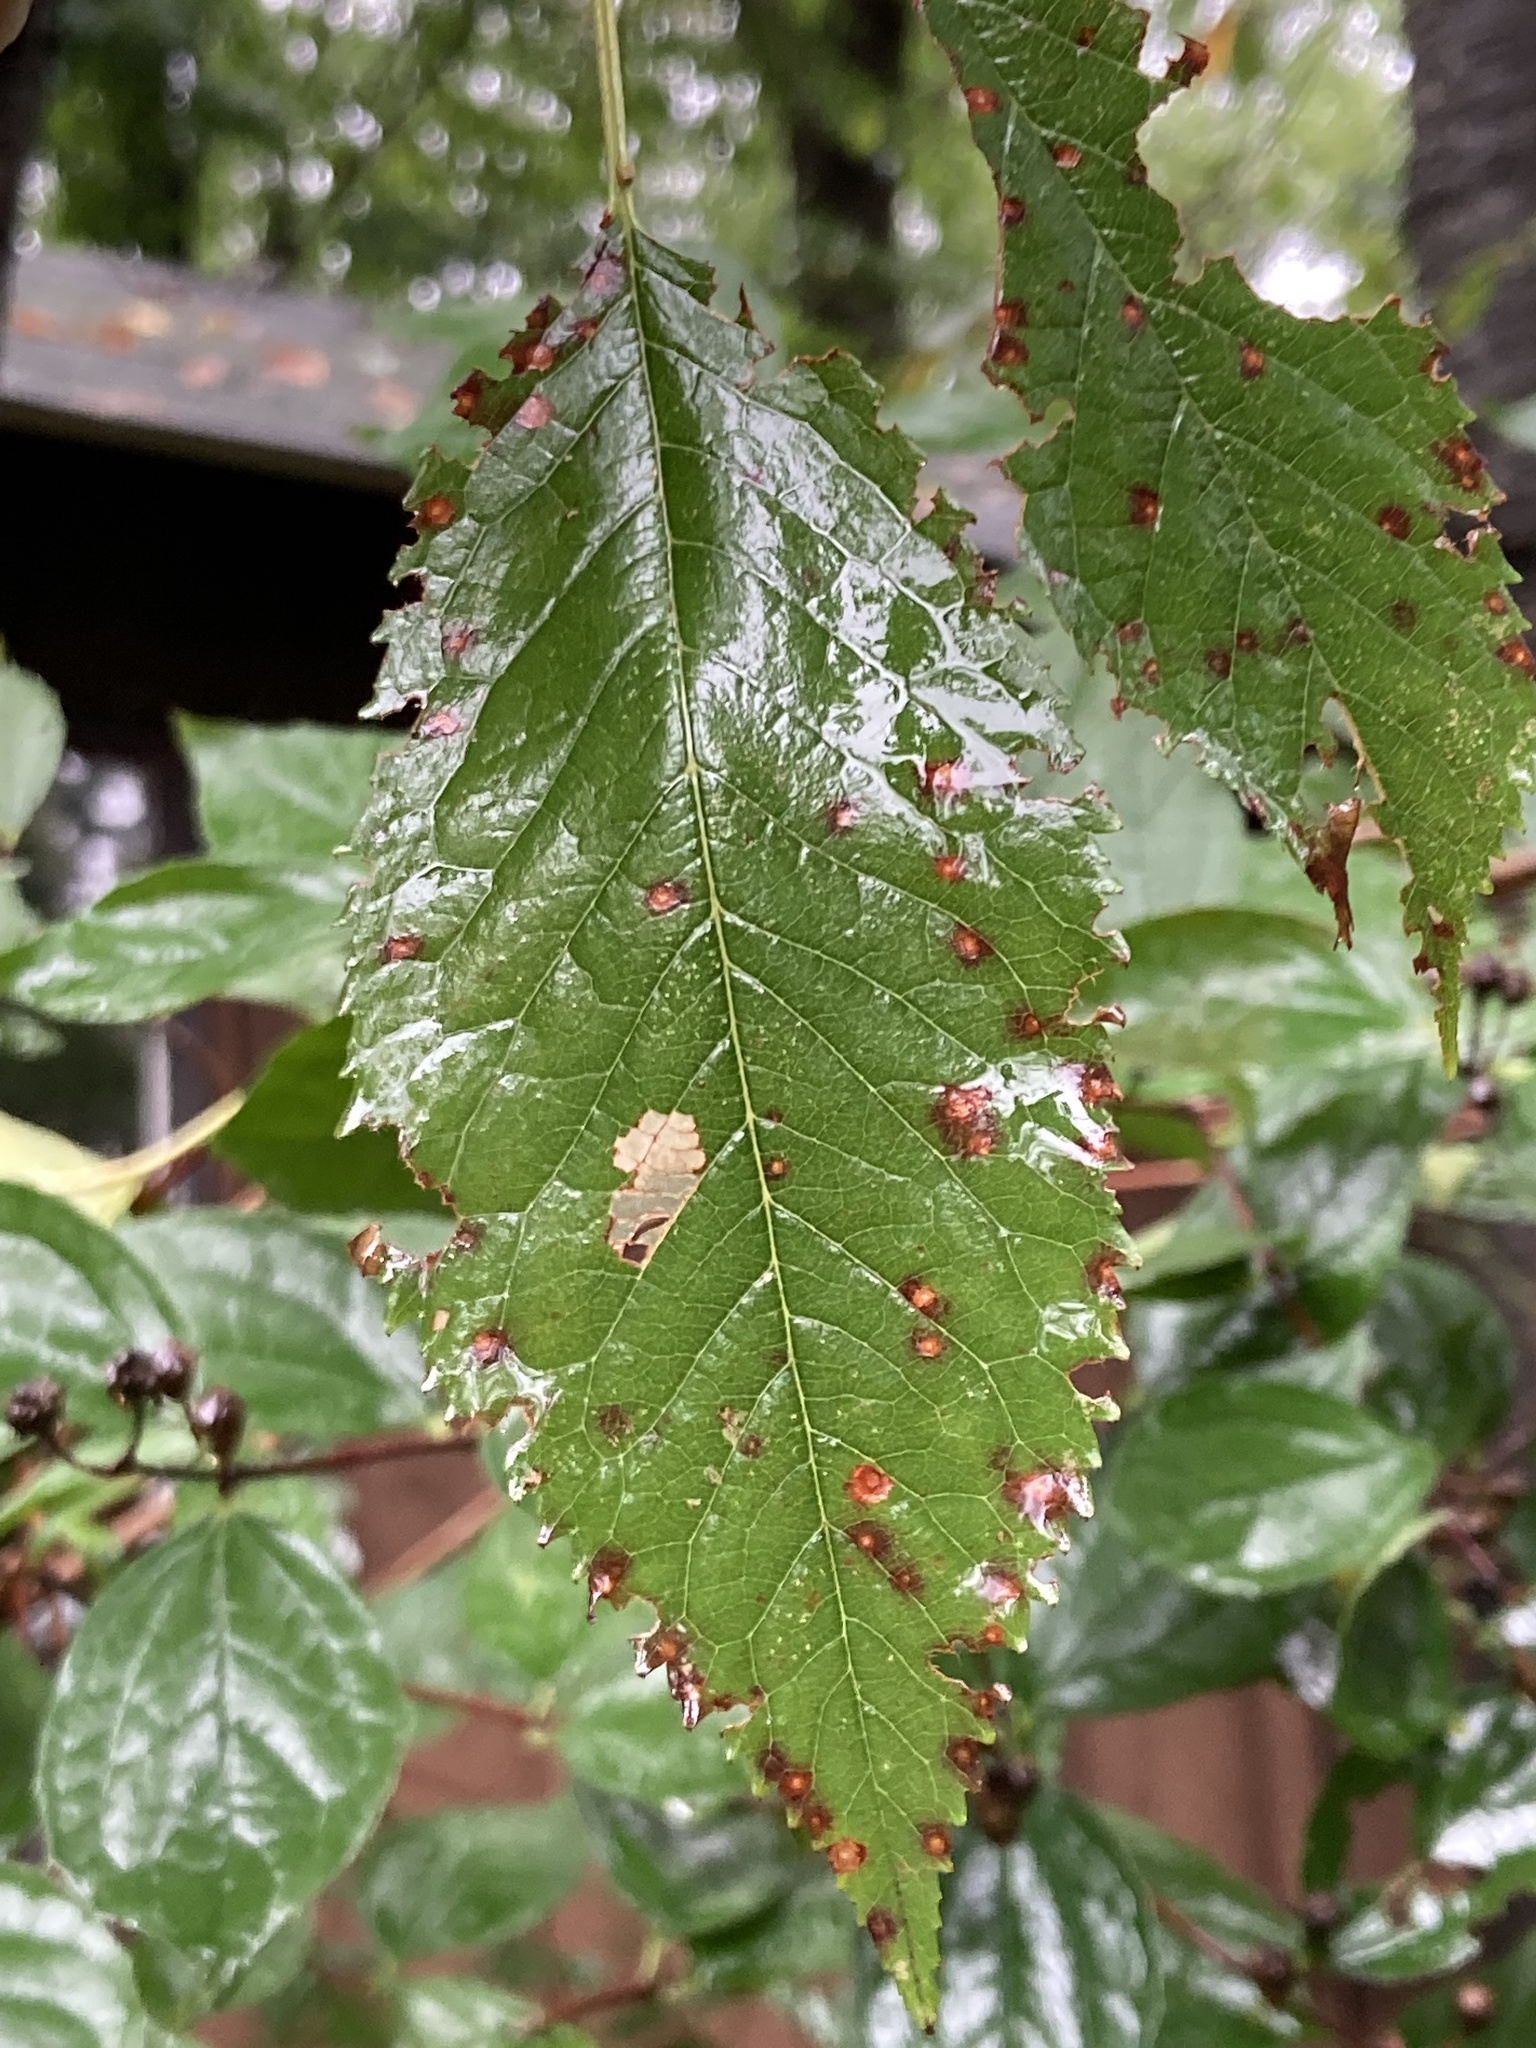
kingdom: Plantae
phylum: Tracheophyta
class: Magnoliopsida
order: Rosales
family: Rosaceae
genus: Prunus
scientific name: Prunus avium
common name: Sweet cherry
